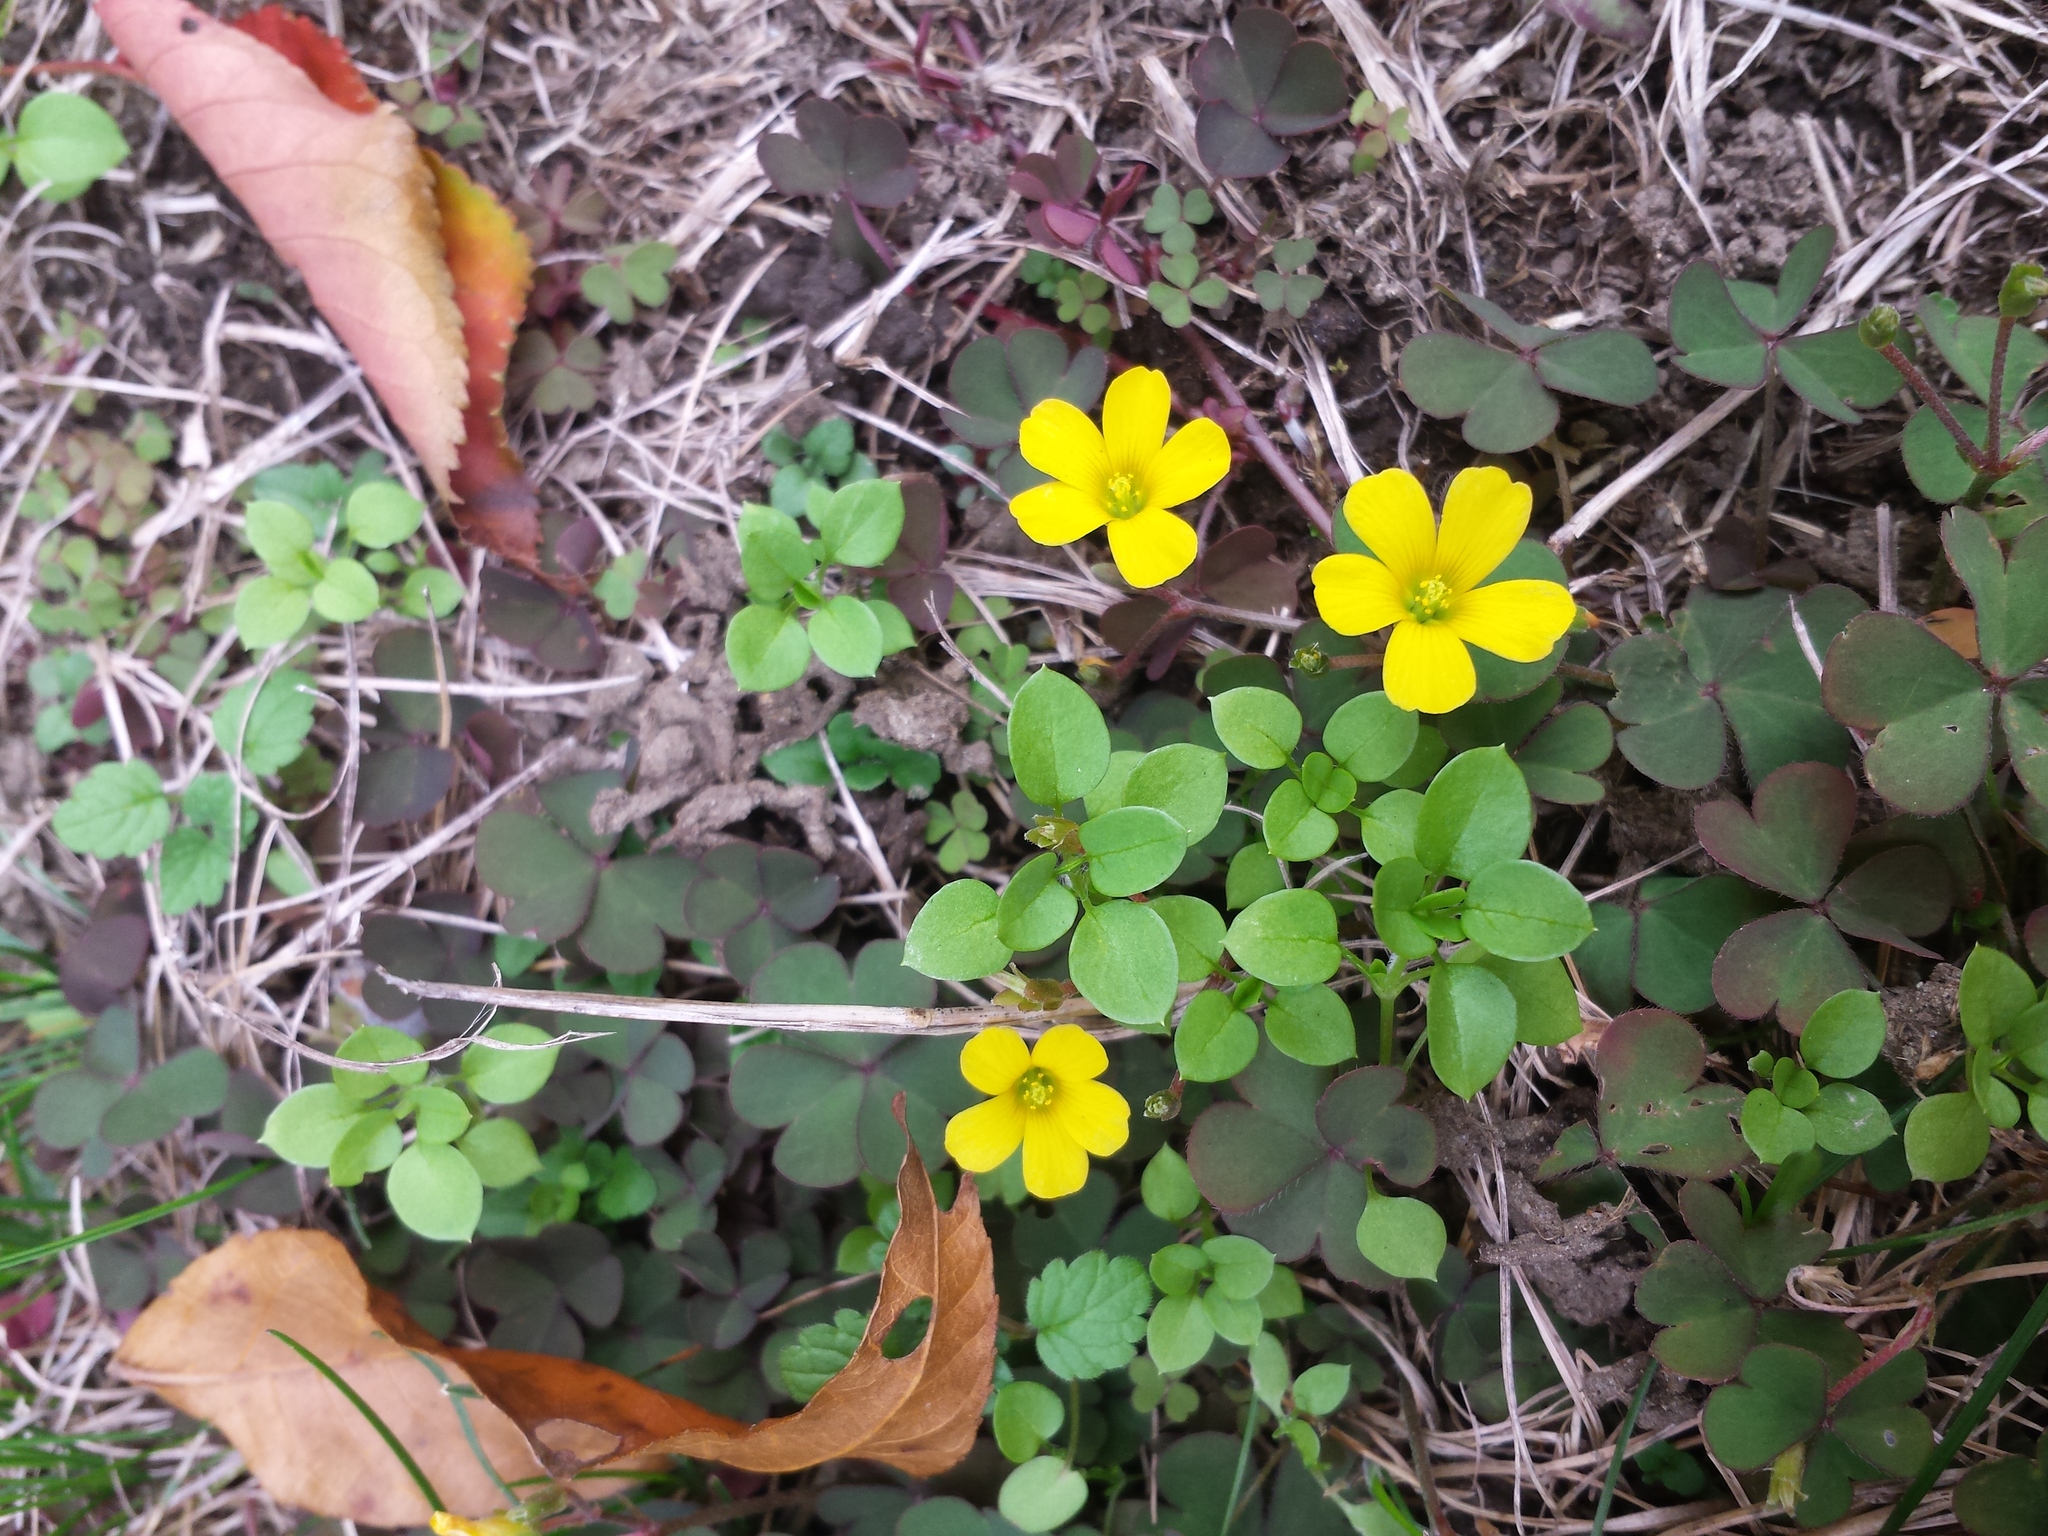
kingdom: Plantae
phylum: Tracheophyta
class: Magnoliopsida
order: Oxalidales
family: Oxalidaceae
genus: Oxalis
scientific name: Oxalis corniculata
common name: Procumbent yellow-sorrel
